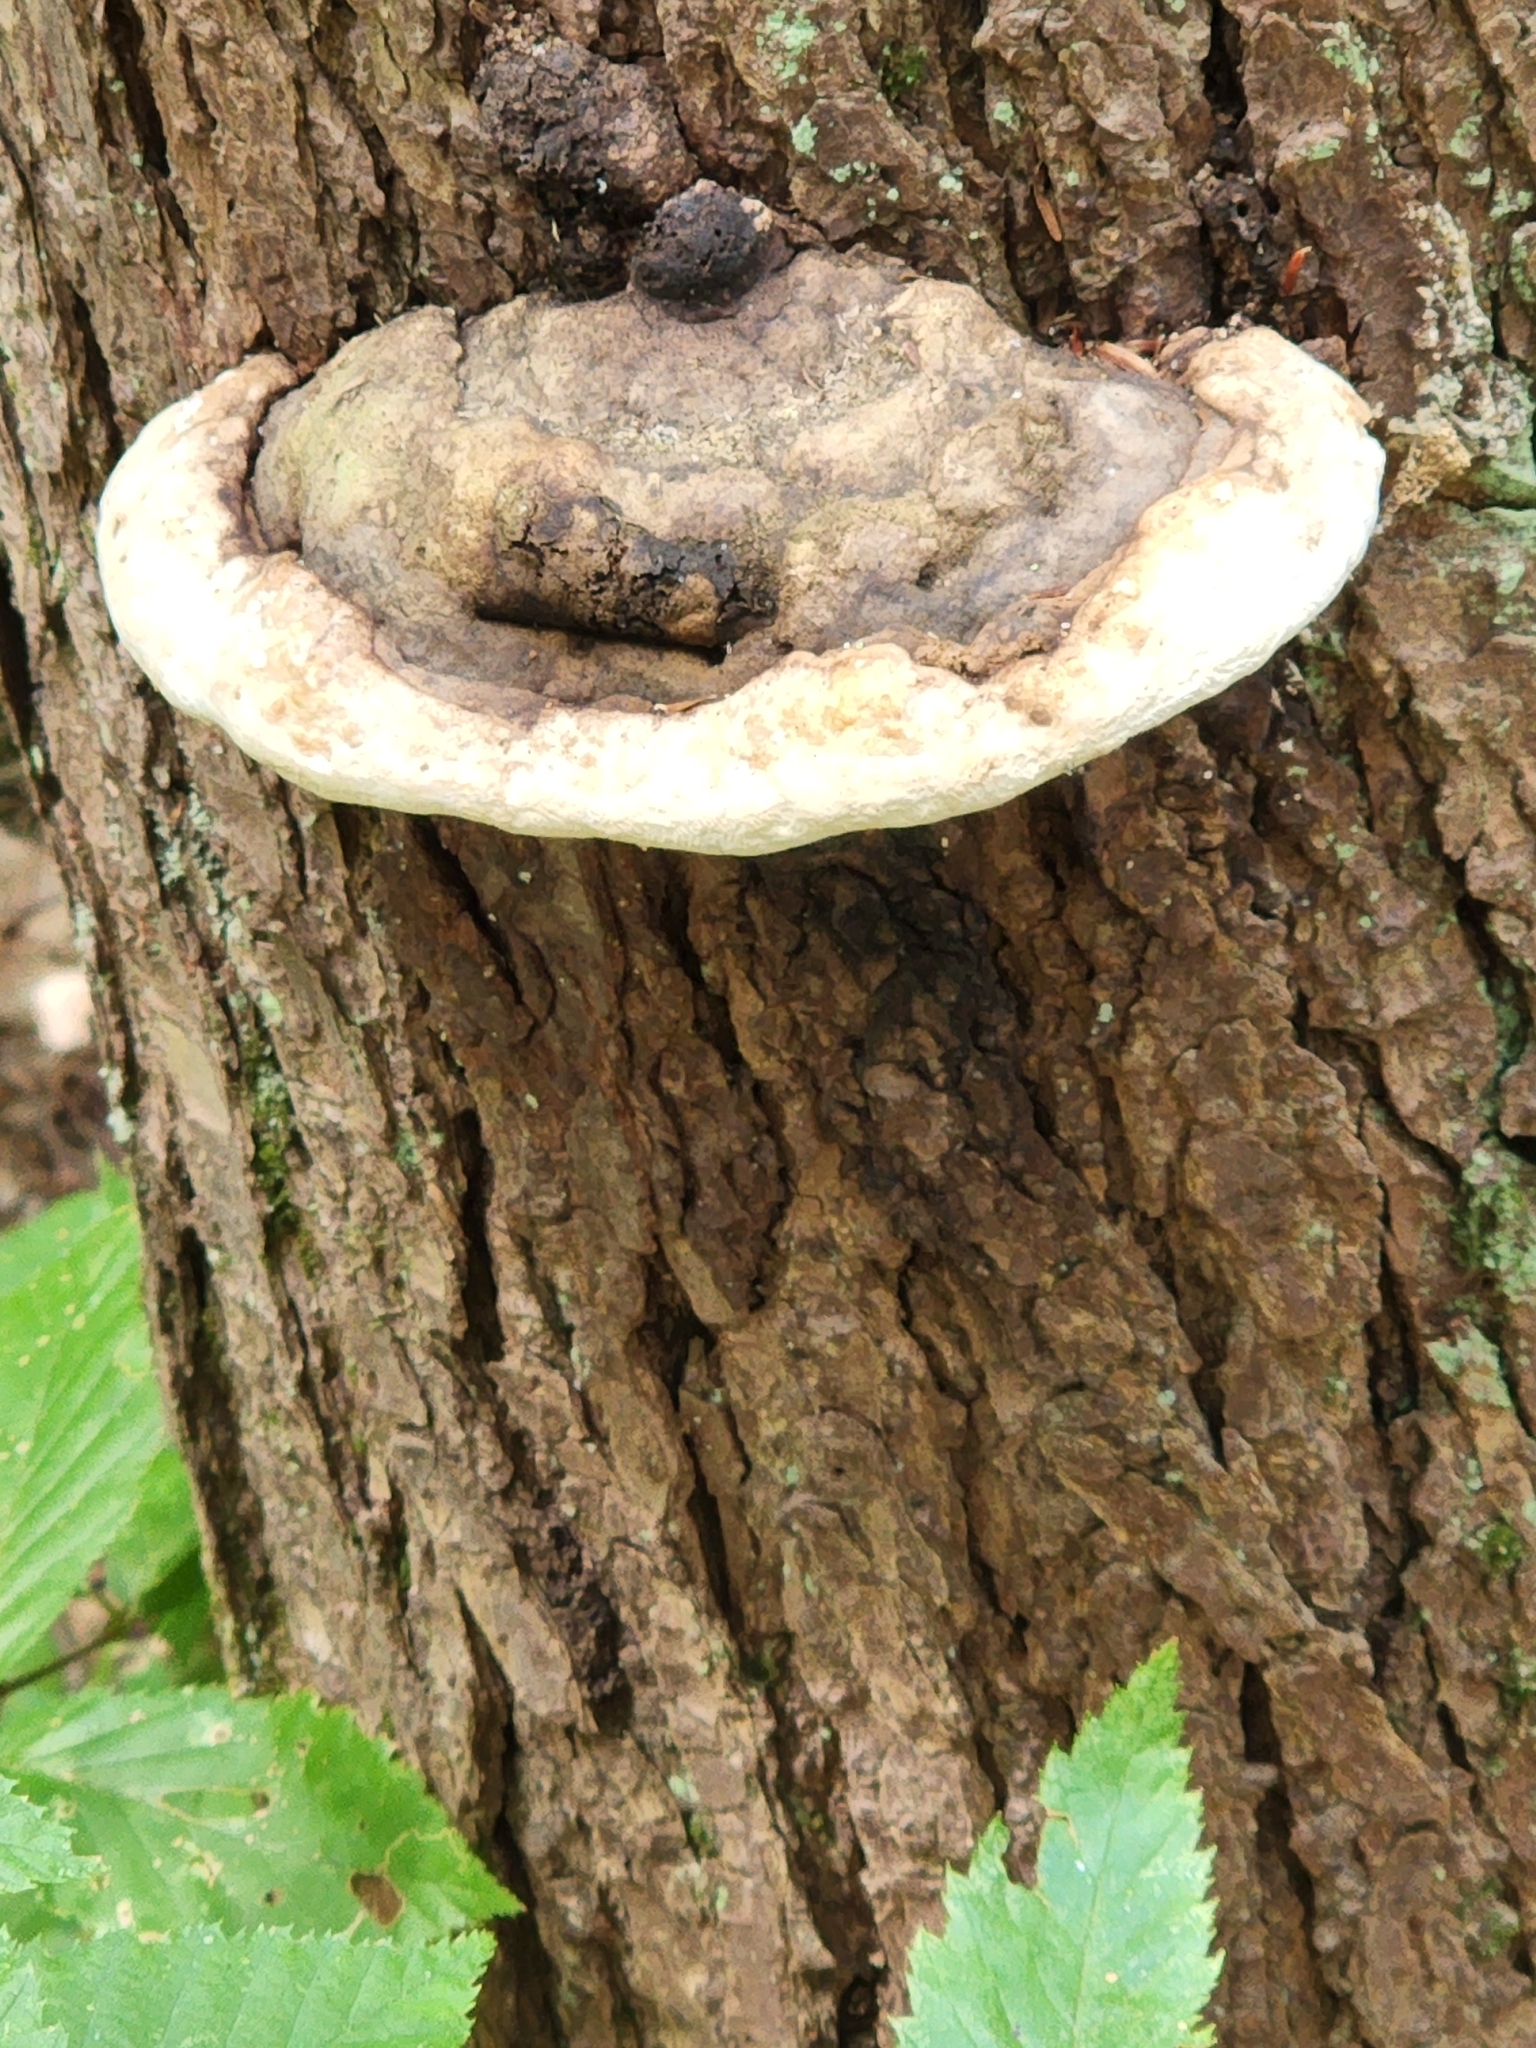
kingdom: Fungi
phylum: Basidiomycota
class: Agaricomycetes
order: Polyporales
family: Polyporaceae
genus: Ganoderma
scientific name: Ganoderma lobatum
